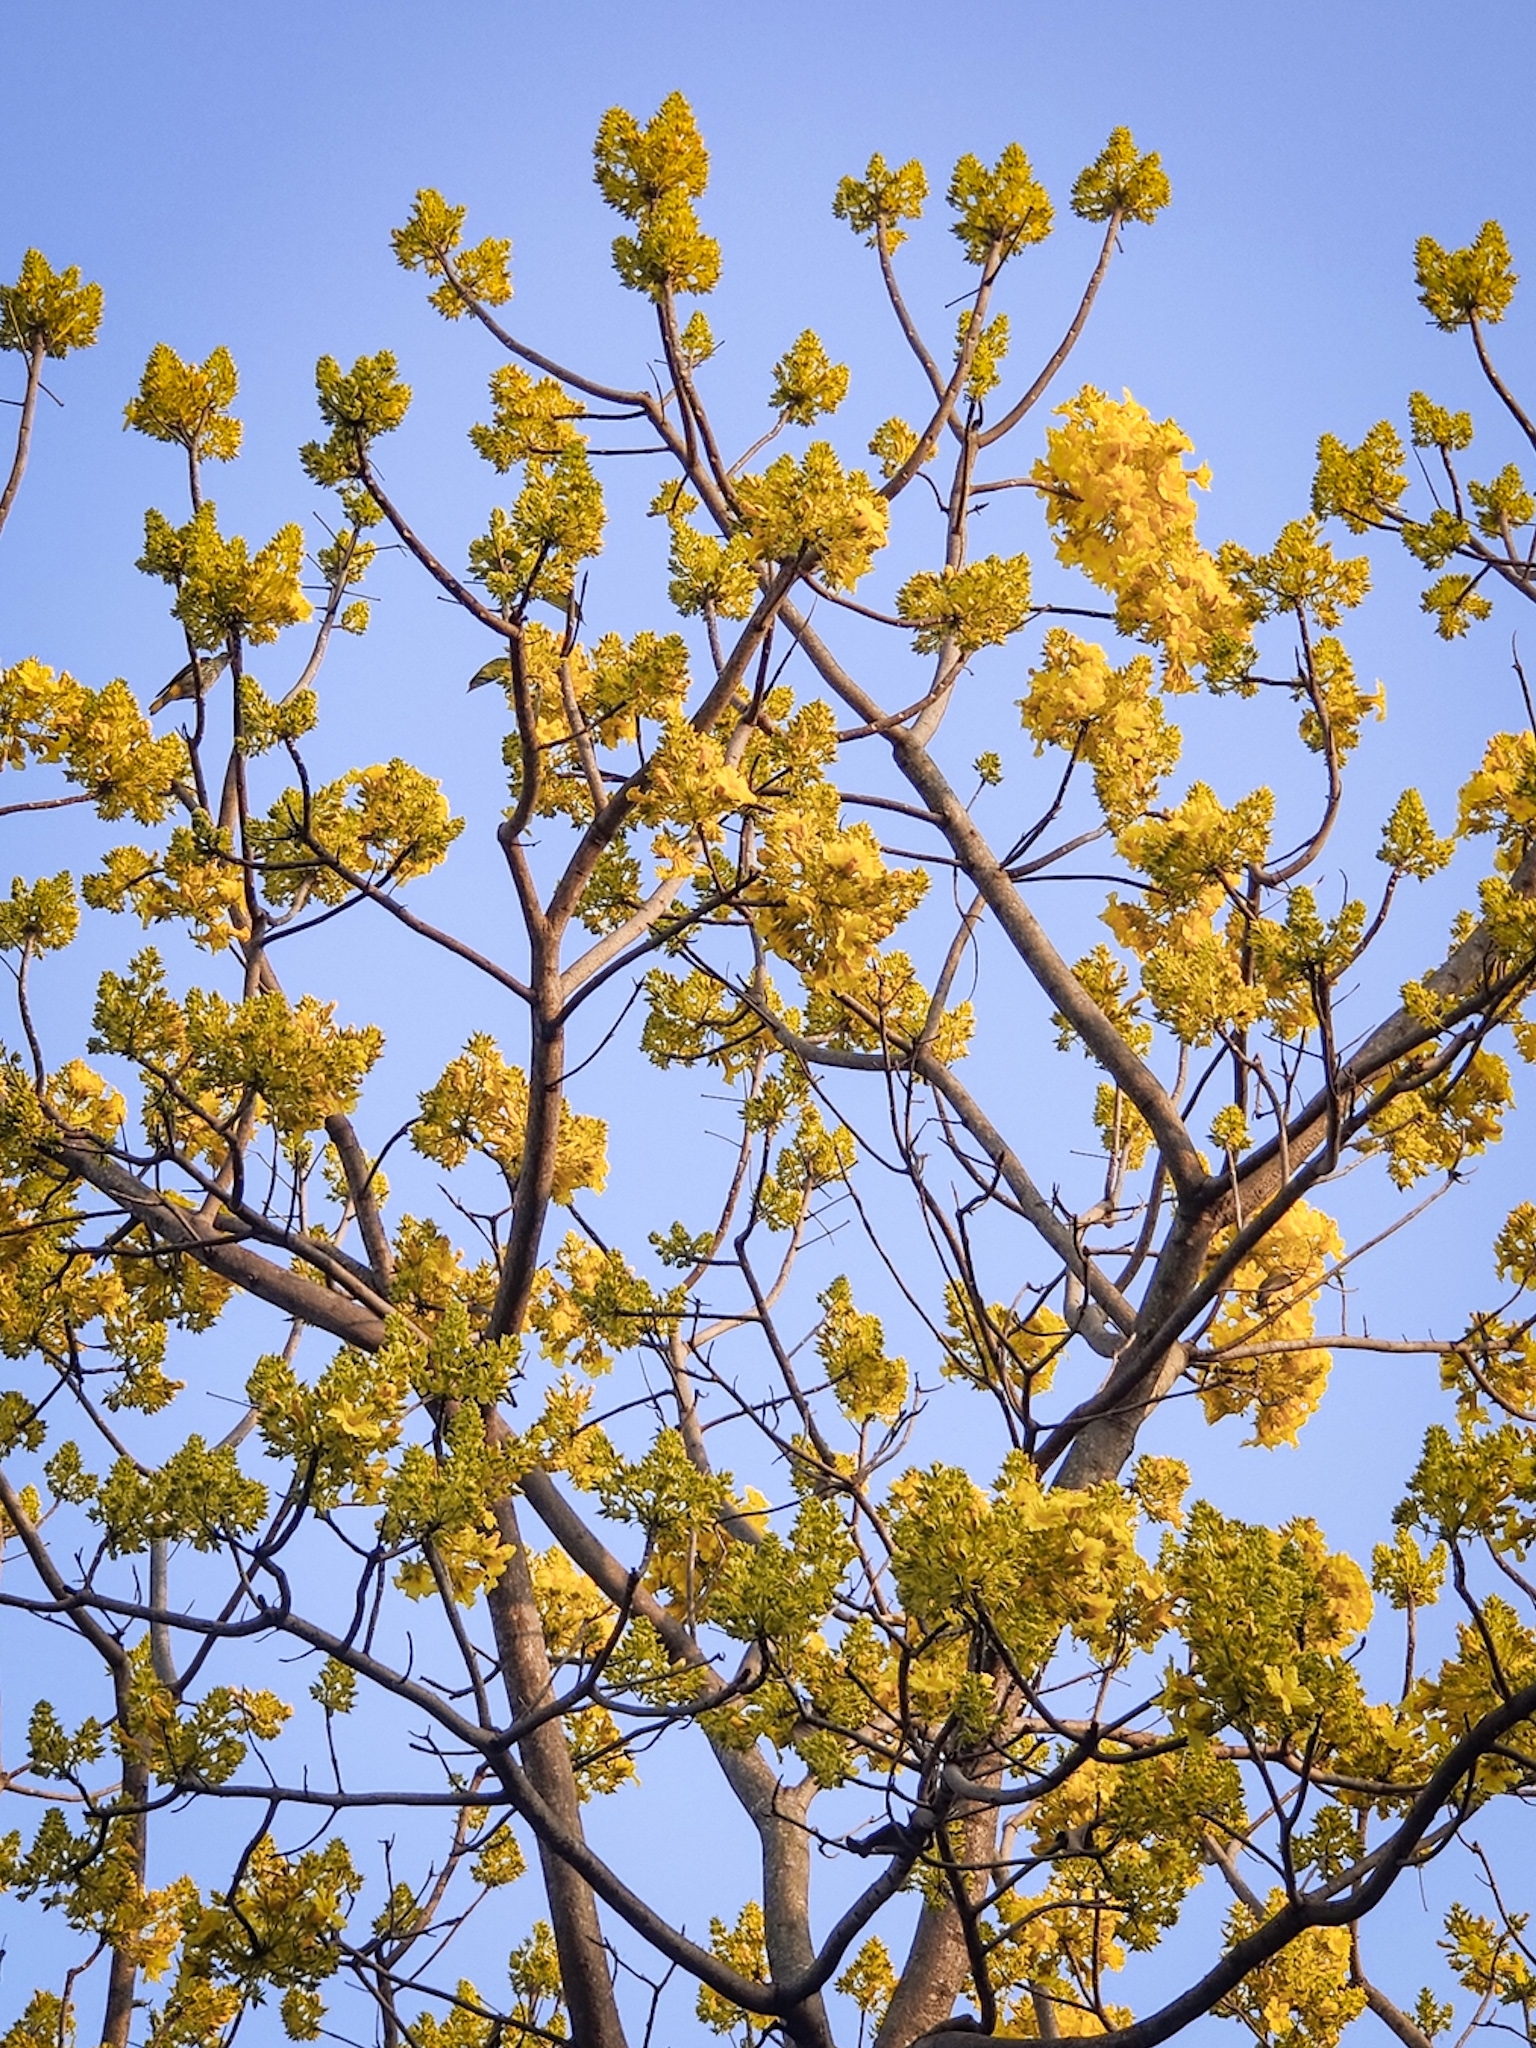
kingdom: Animalia
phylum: Chordata
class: Aves
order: Passeriformes
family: Oriolidae
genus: Oriolus
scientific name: Oriolus kundoo
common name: Indian golden oriole
